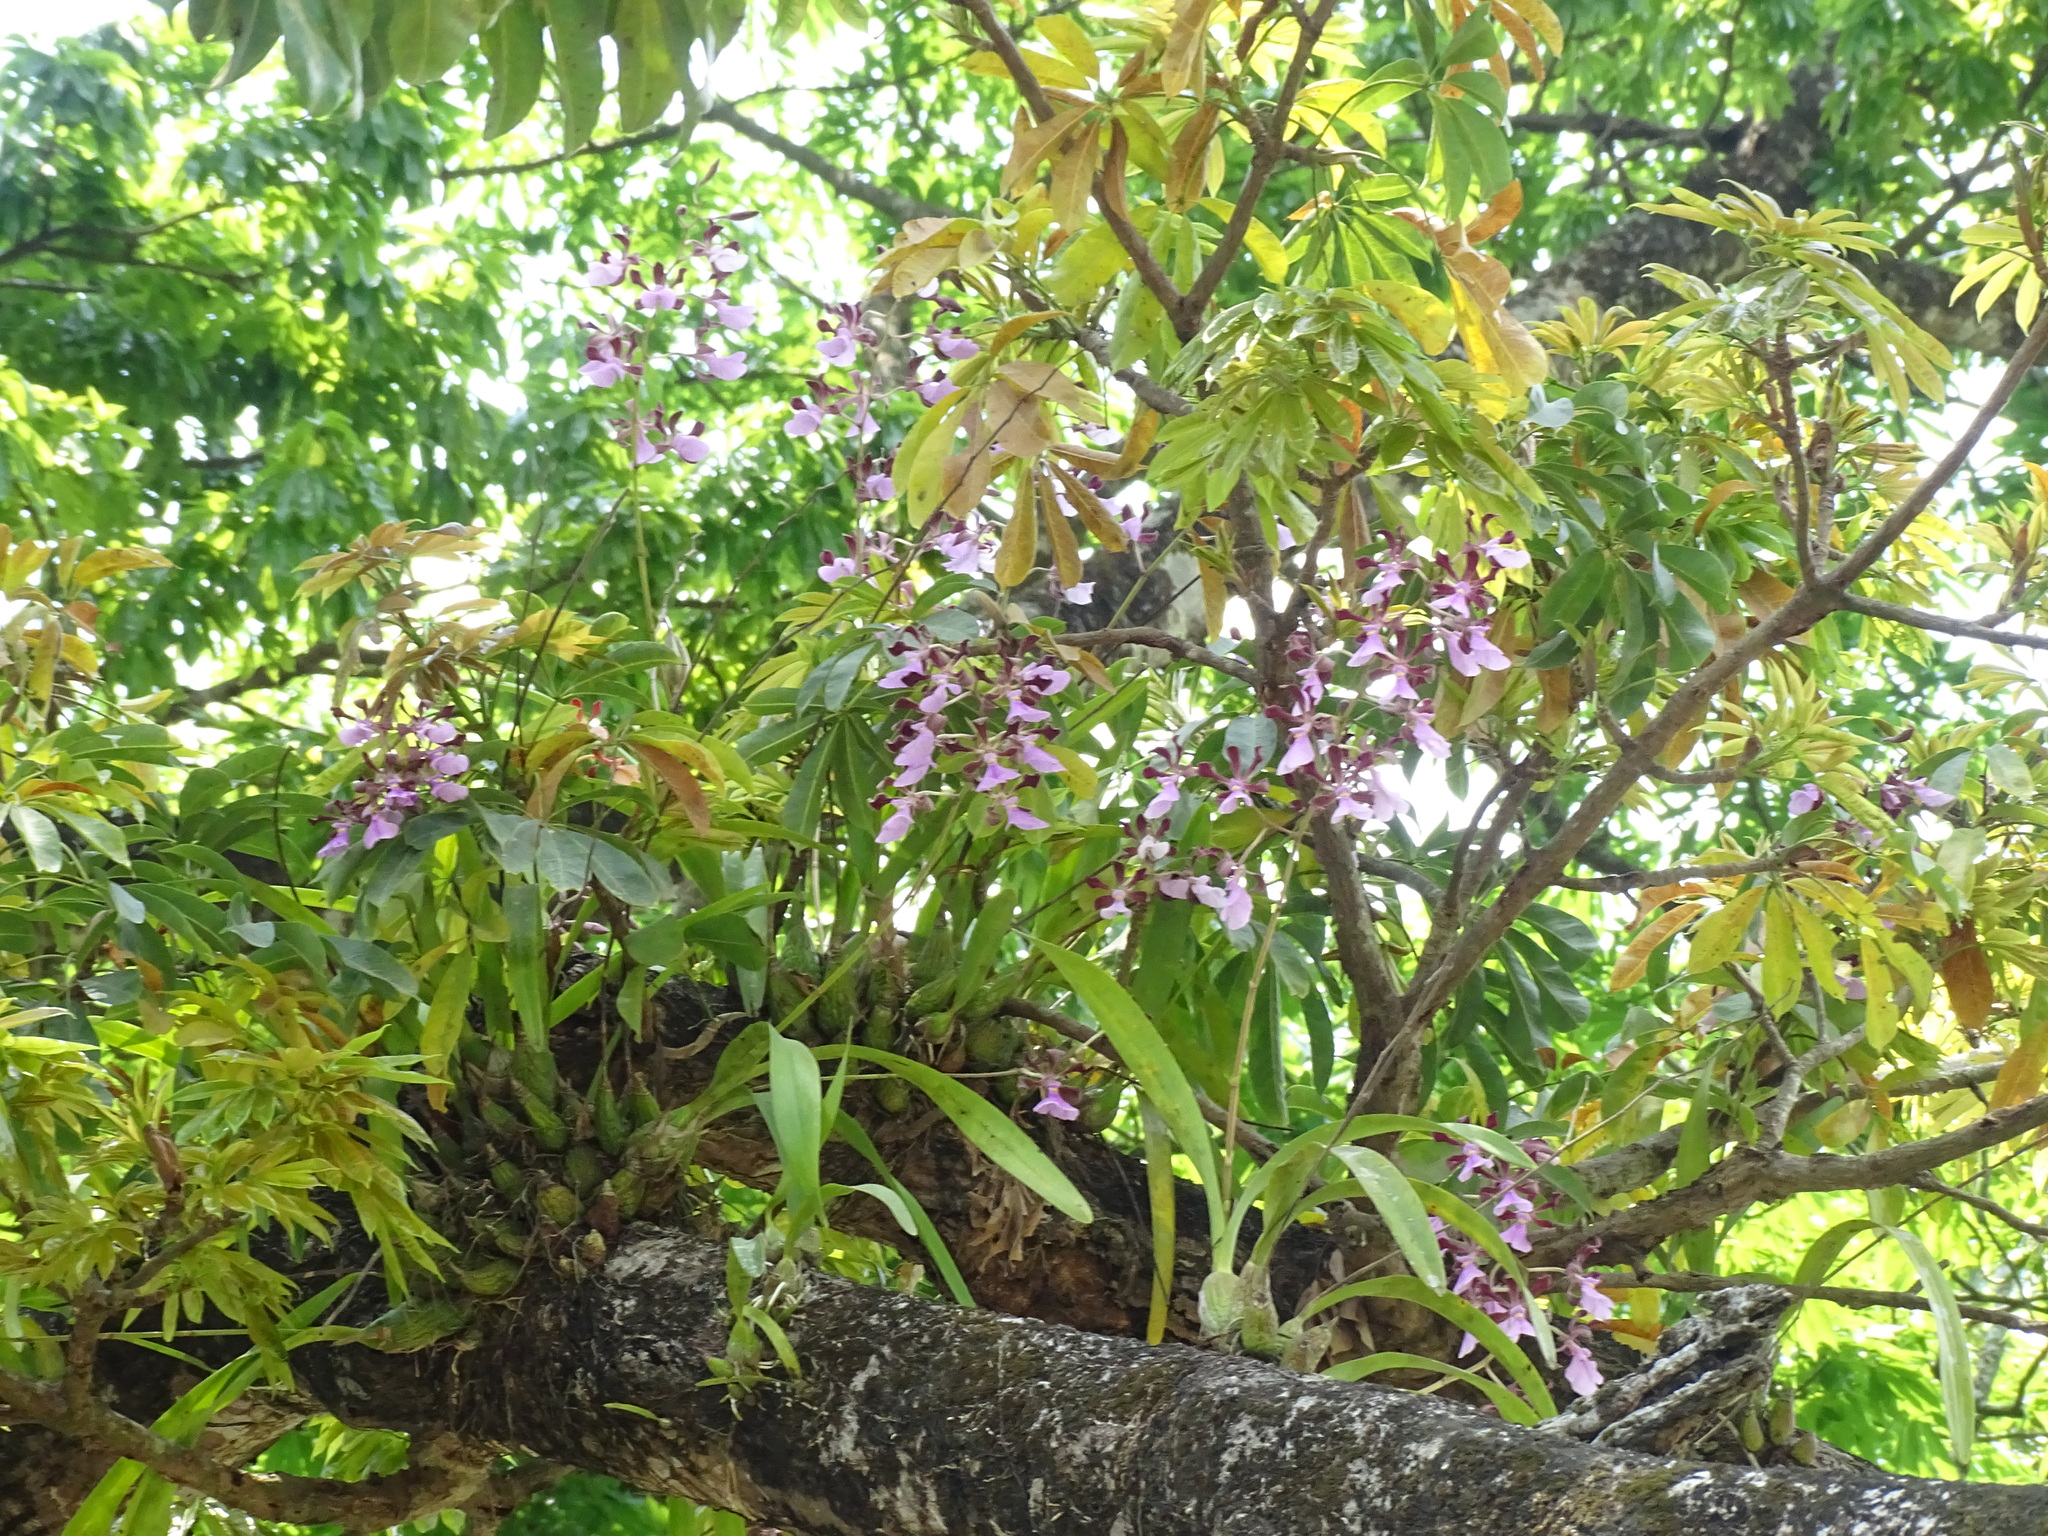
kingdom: Plantae
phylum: Tracheophyta
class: Liliopsida
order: Asparagales
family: Orchidaceae
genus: Encyclia
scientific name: Encyclia cordigera
